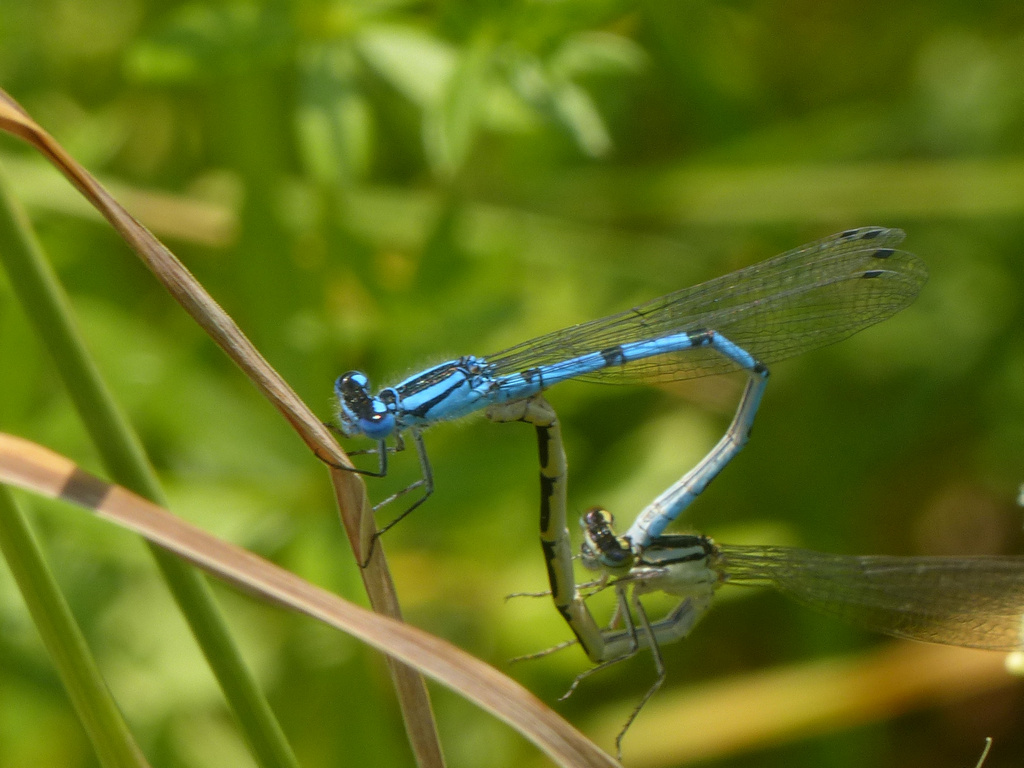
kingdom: Animalia
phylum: Arthropoda
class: Insecta
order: Odonata
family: Coenagrionidae
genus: Enallagma
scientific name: Enallagma cyathigerum
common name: Common blue damselfly
